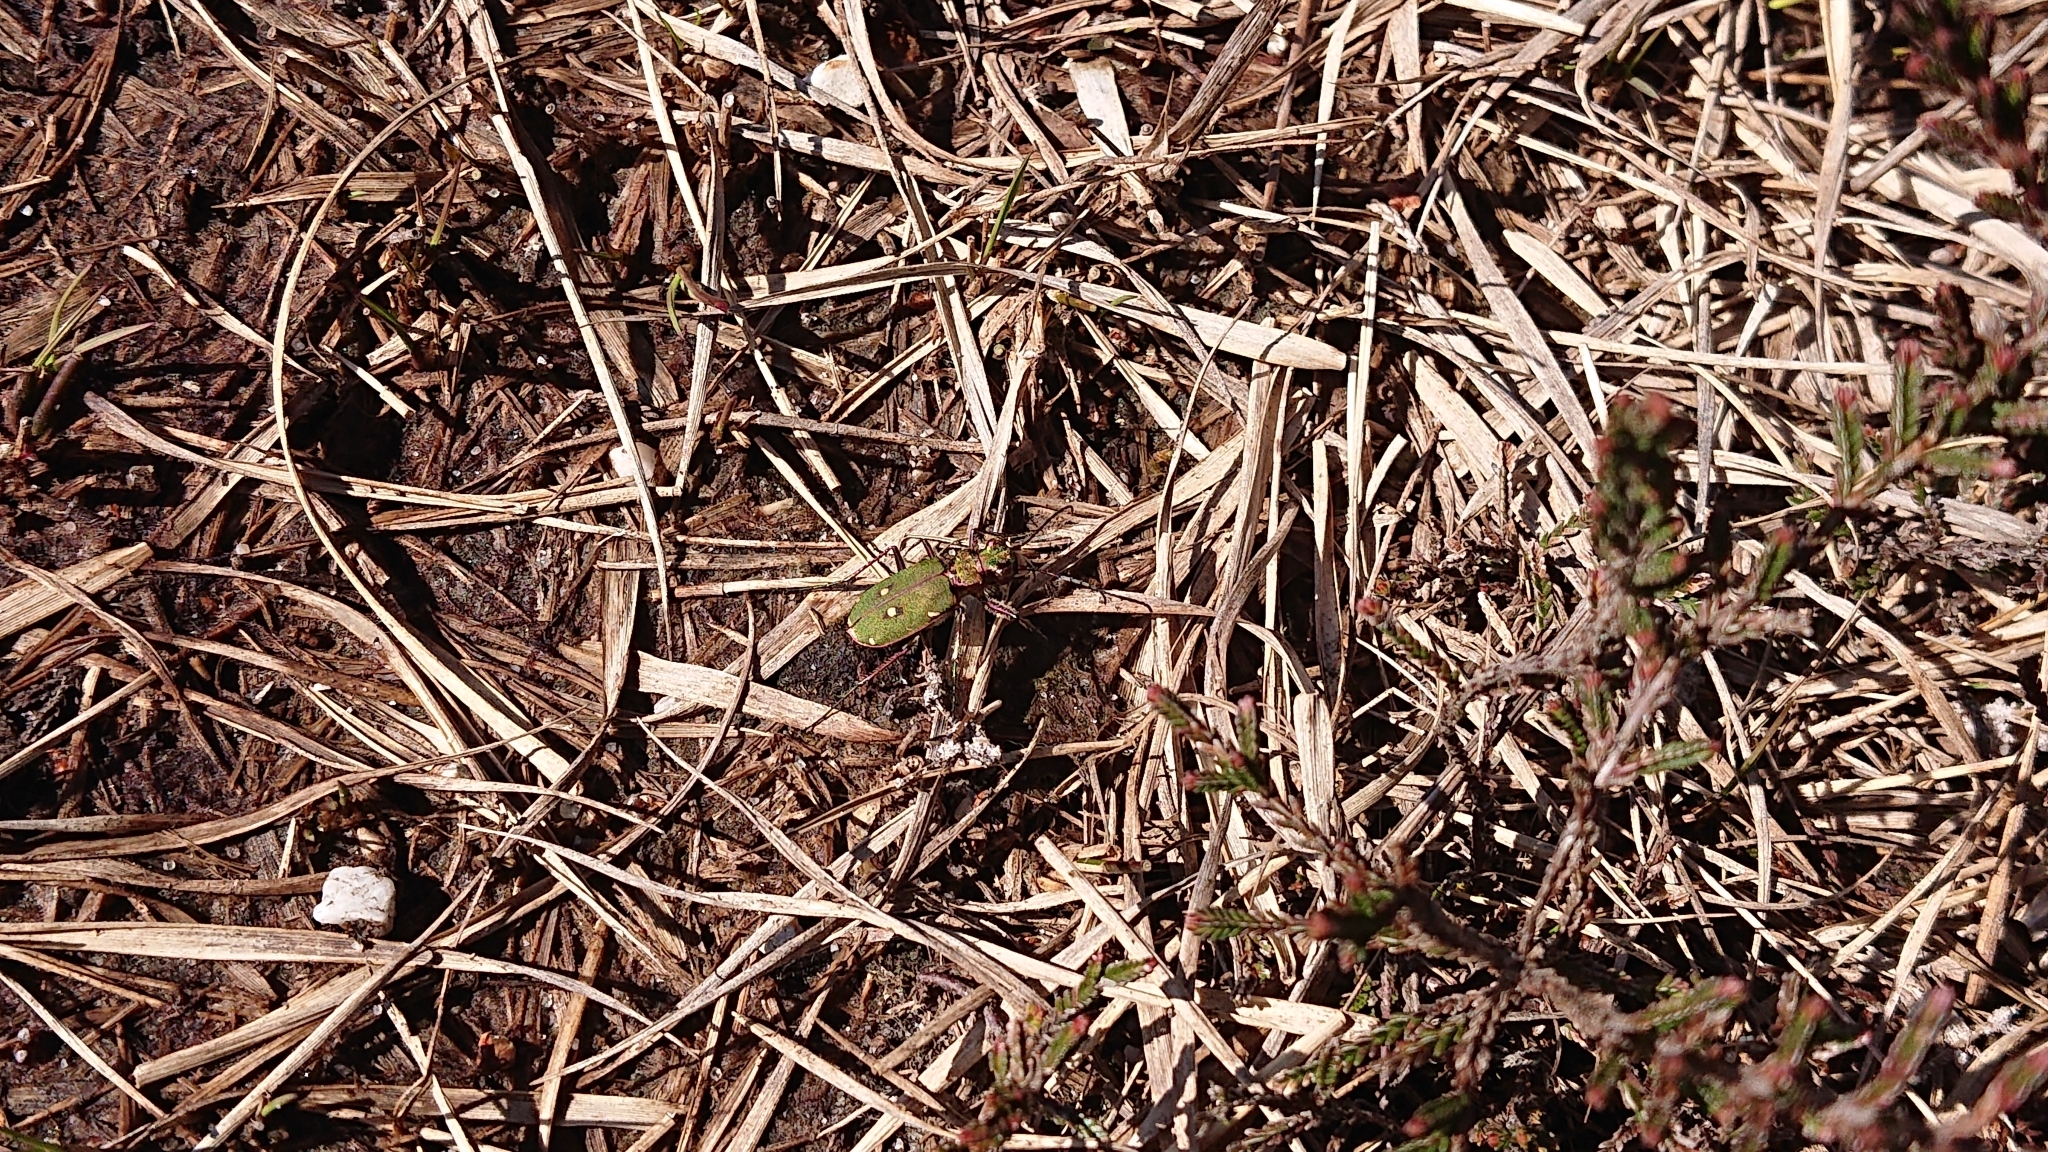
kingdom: Animalia
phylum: Arthropoda
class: Insecta
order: Coleoptera
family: Carabidae
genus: Cicindela
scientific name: Cicindela campestris
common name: Common tiger beetle
